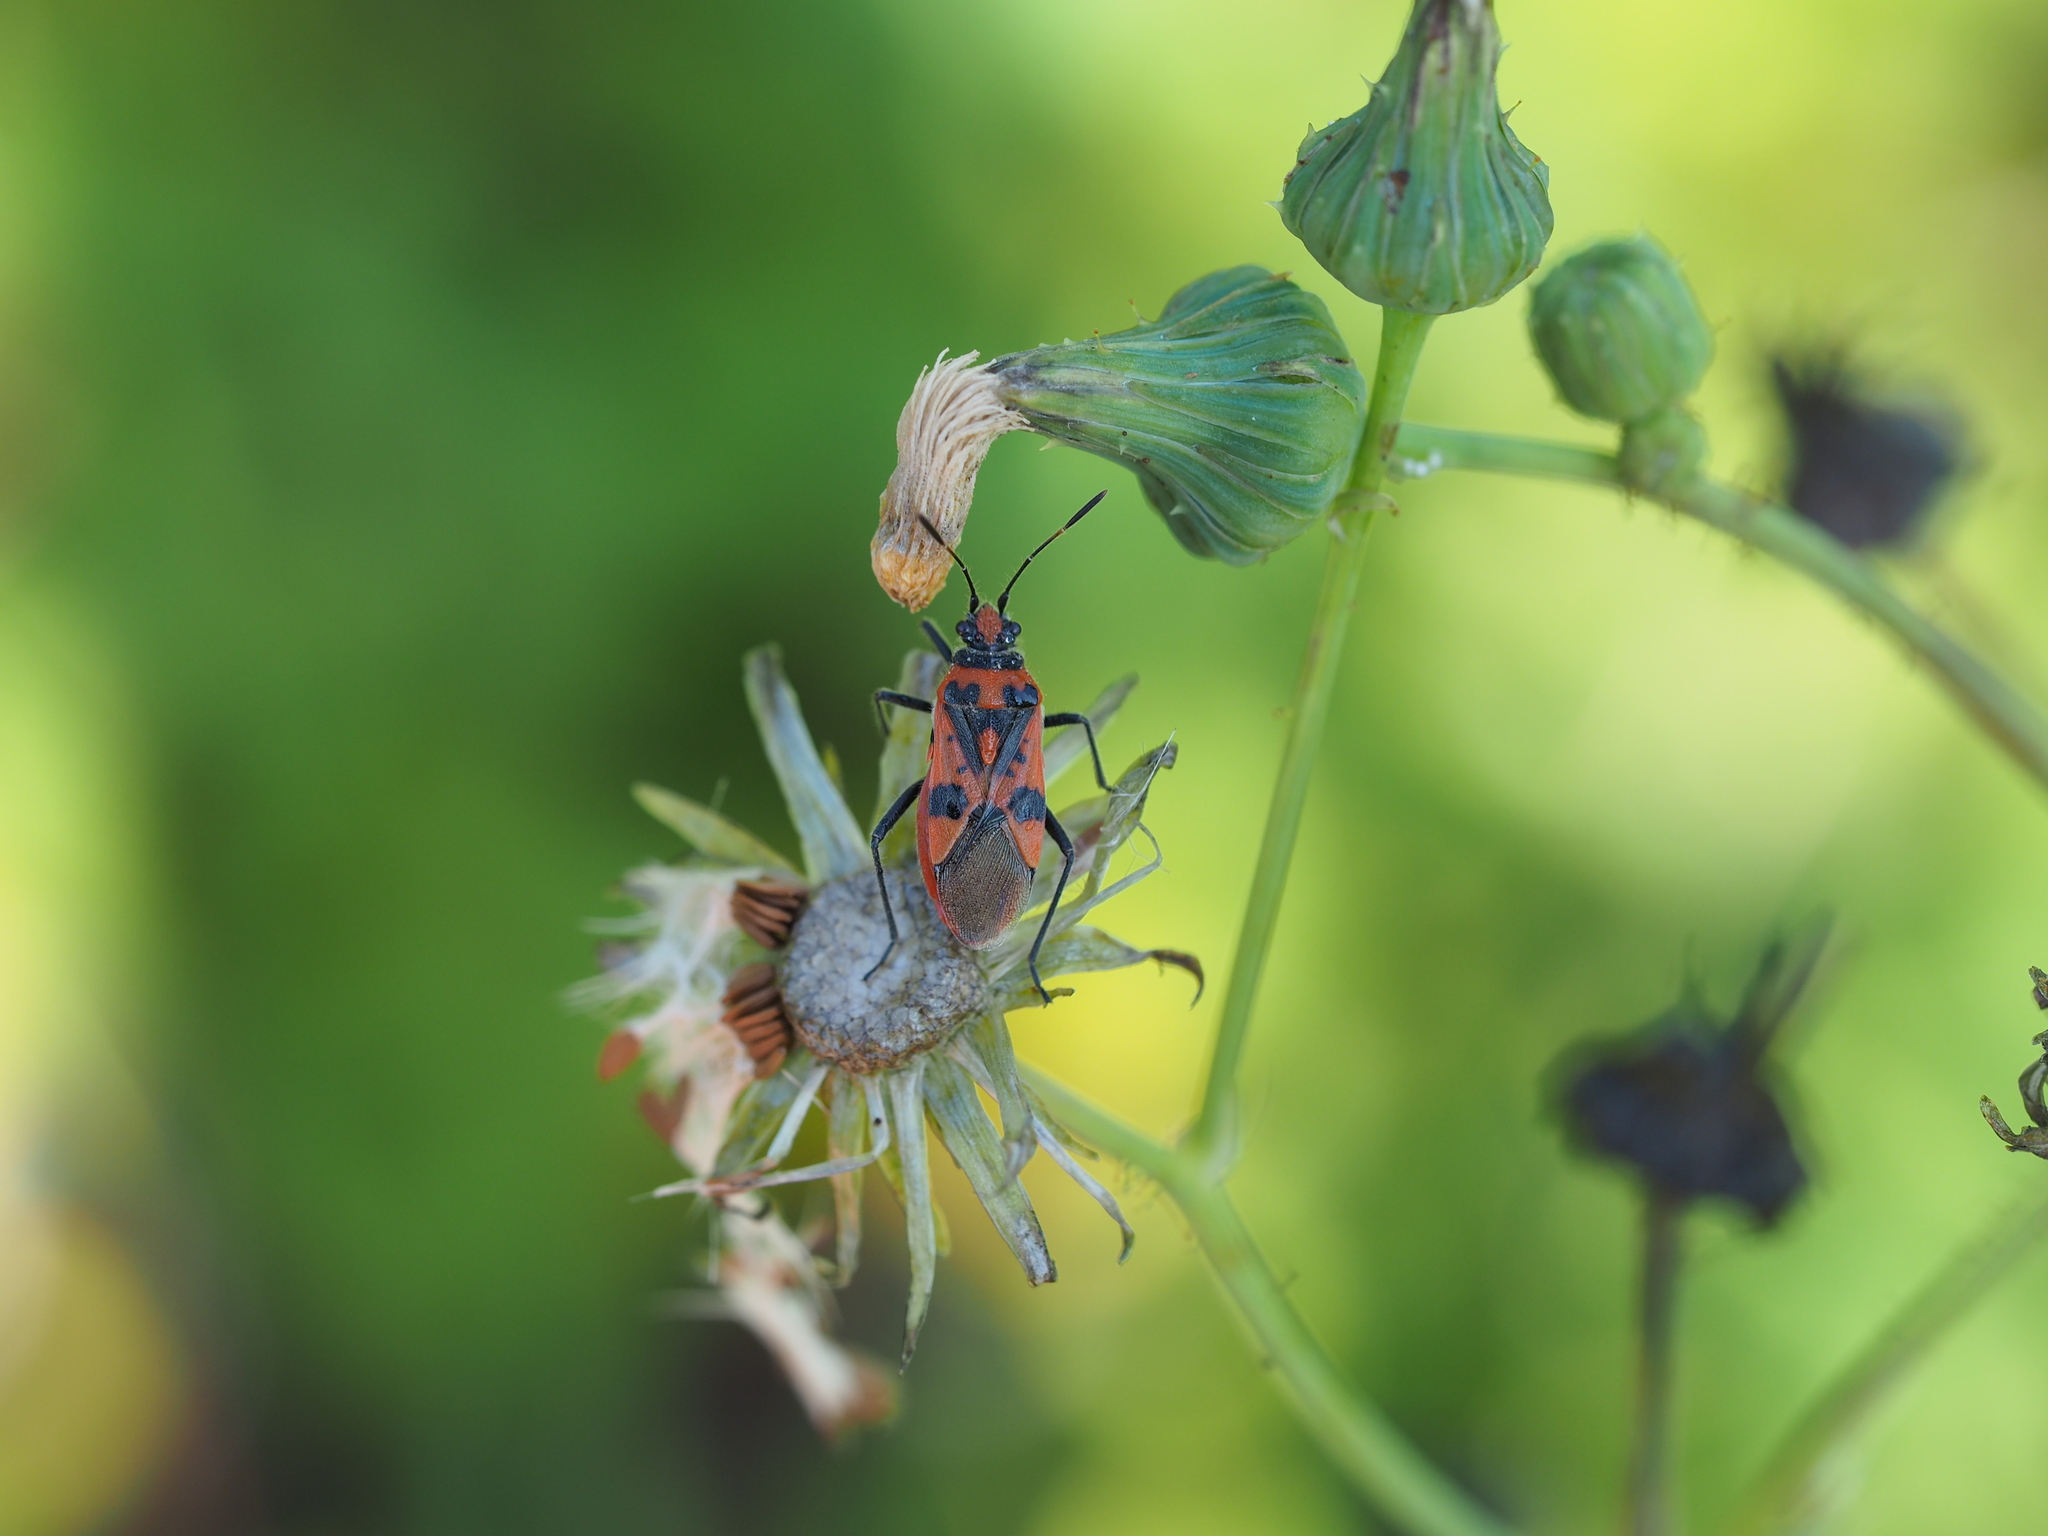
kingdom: Animalia
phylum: Arthropoda
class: Insecta
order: Hemiptera
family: Rhopalidae
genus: Corizus
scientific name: Corizus hyoscyami
